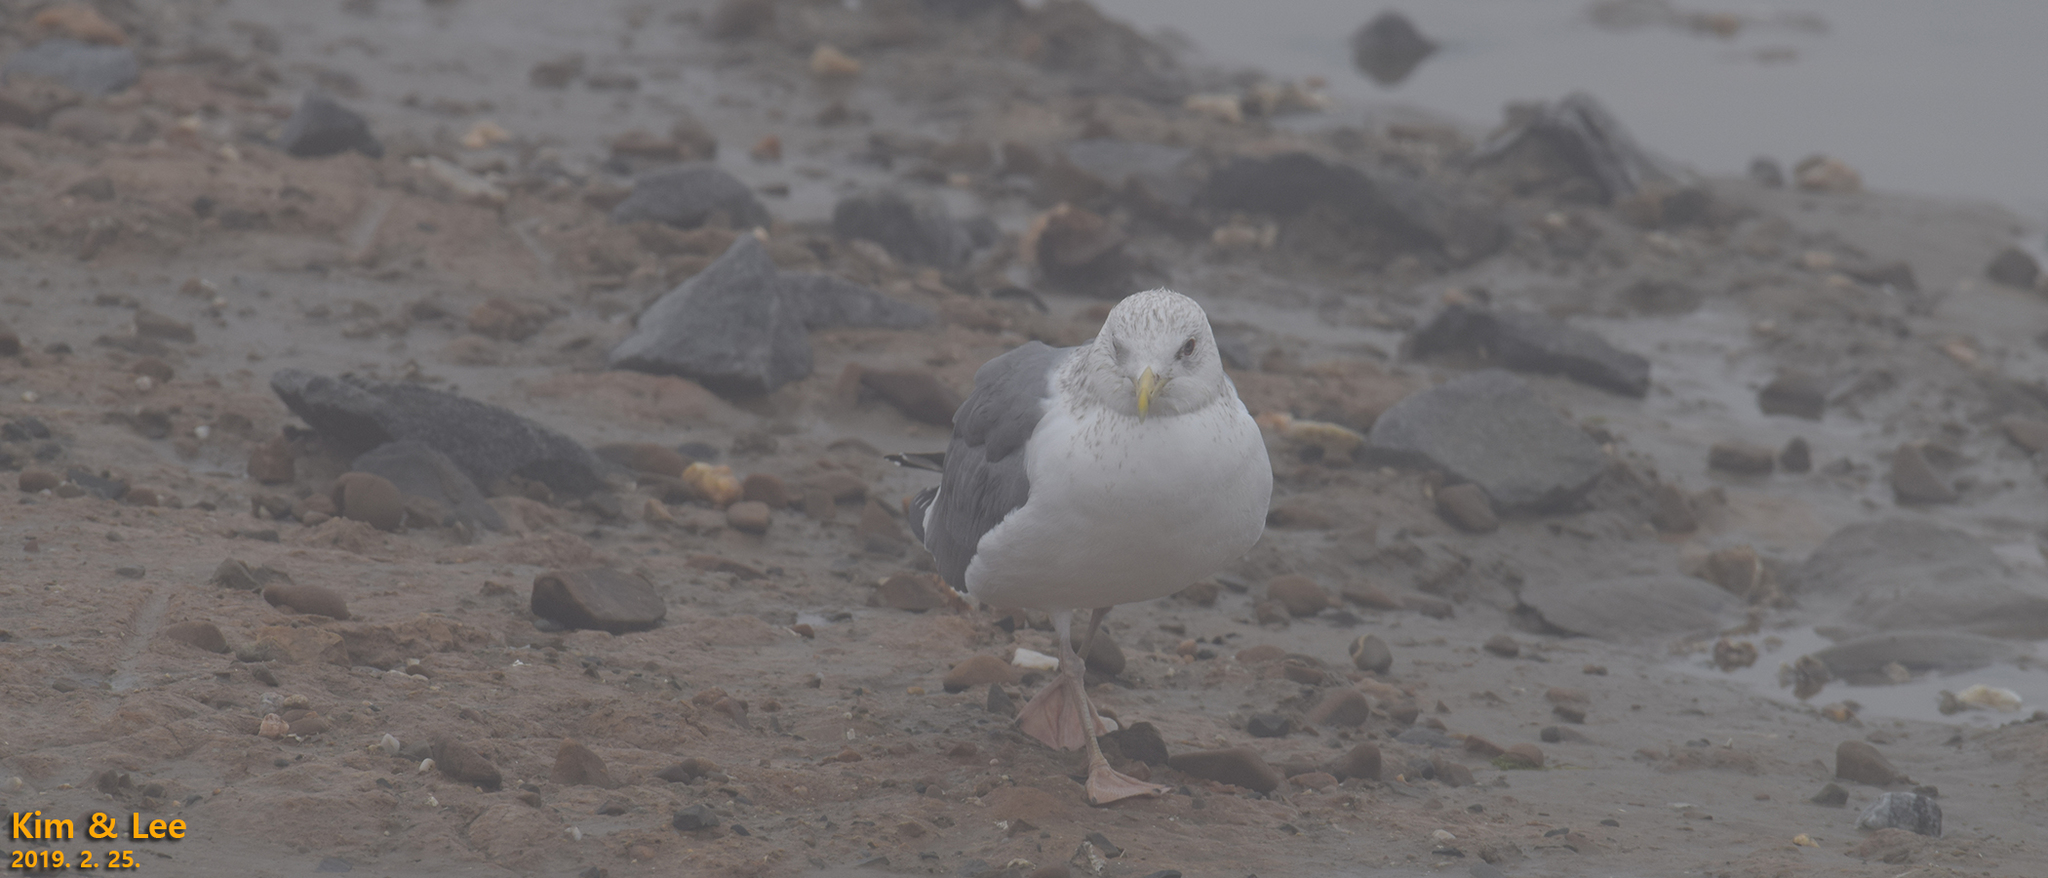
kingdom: Animalia
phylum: Chordata
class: Aves
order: Charadriiformes
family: Laridae
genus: Larus
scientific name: Larus argentatus
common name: Herring gull
